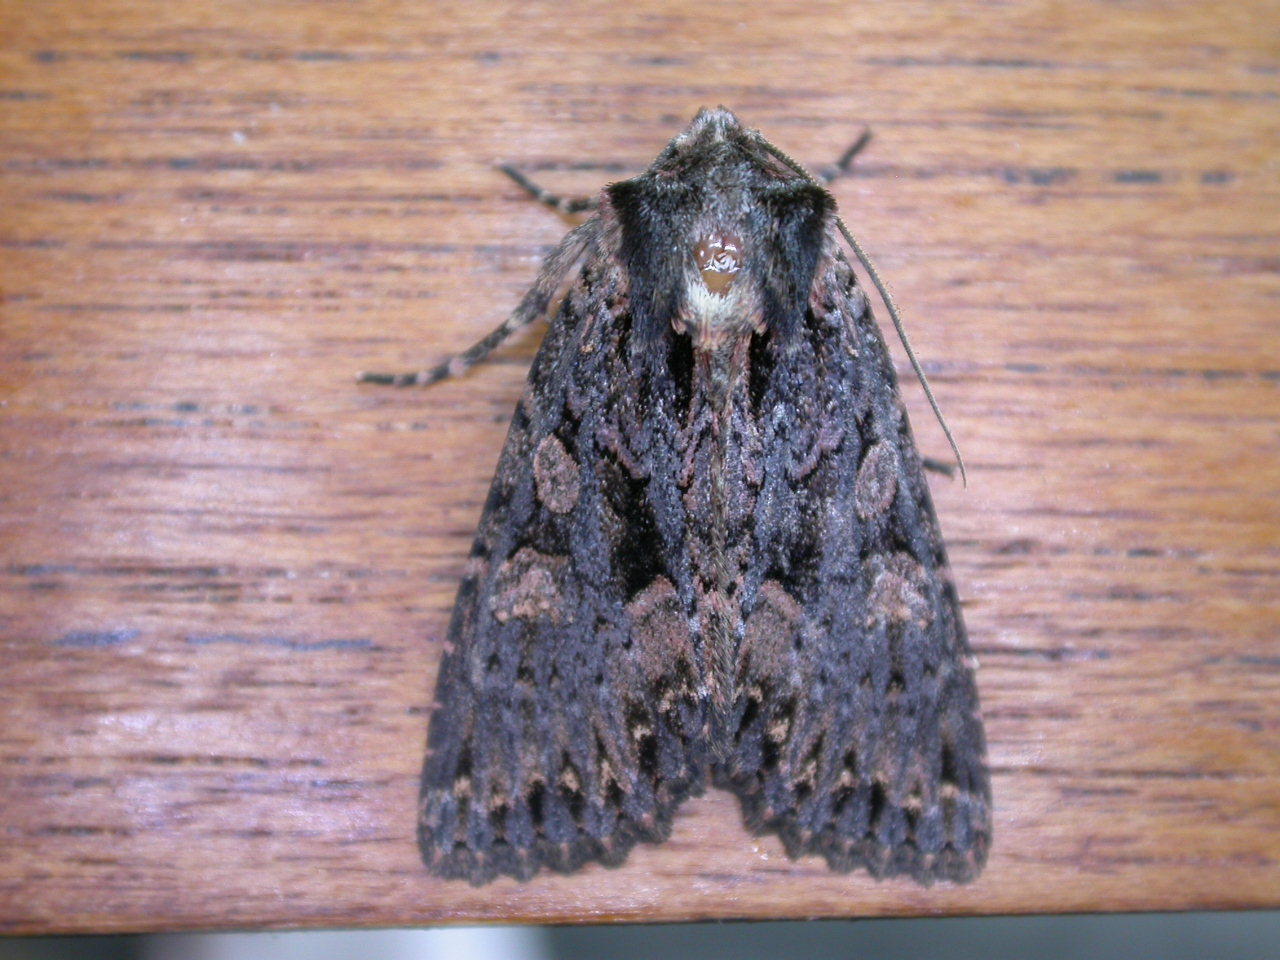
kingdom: Animalia
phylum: Arthropoda
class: Insecta
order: Lepidoptera
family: Noctuidae
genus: Mniotype
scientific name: Mniotype satura
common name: Beautiful arches
